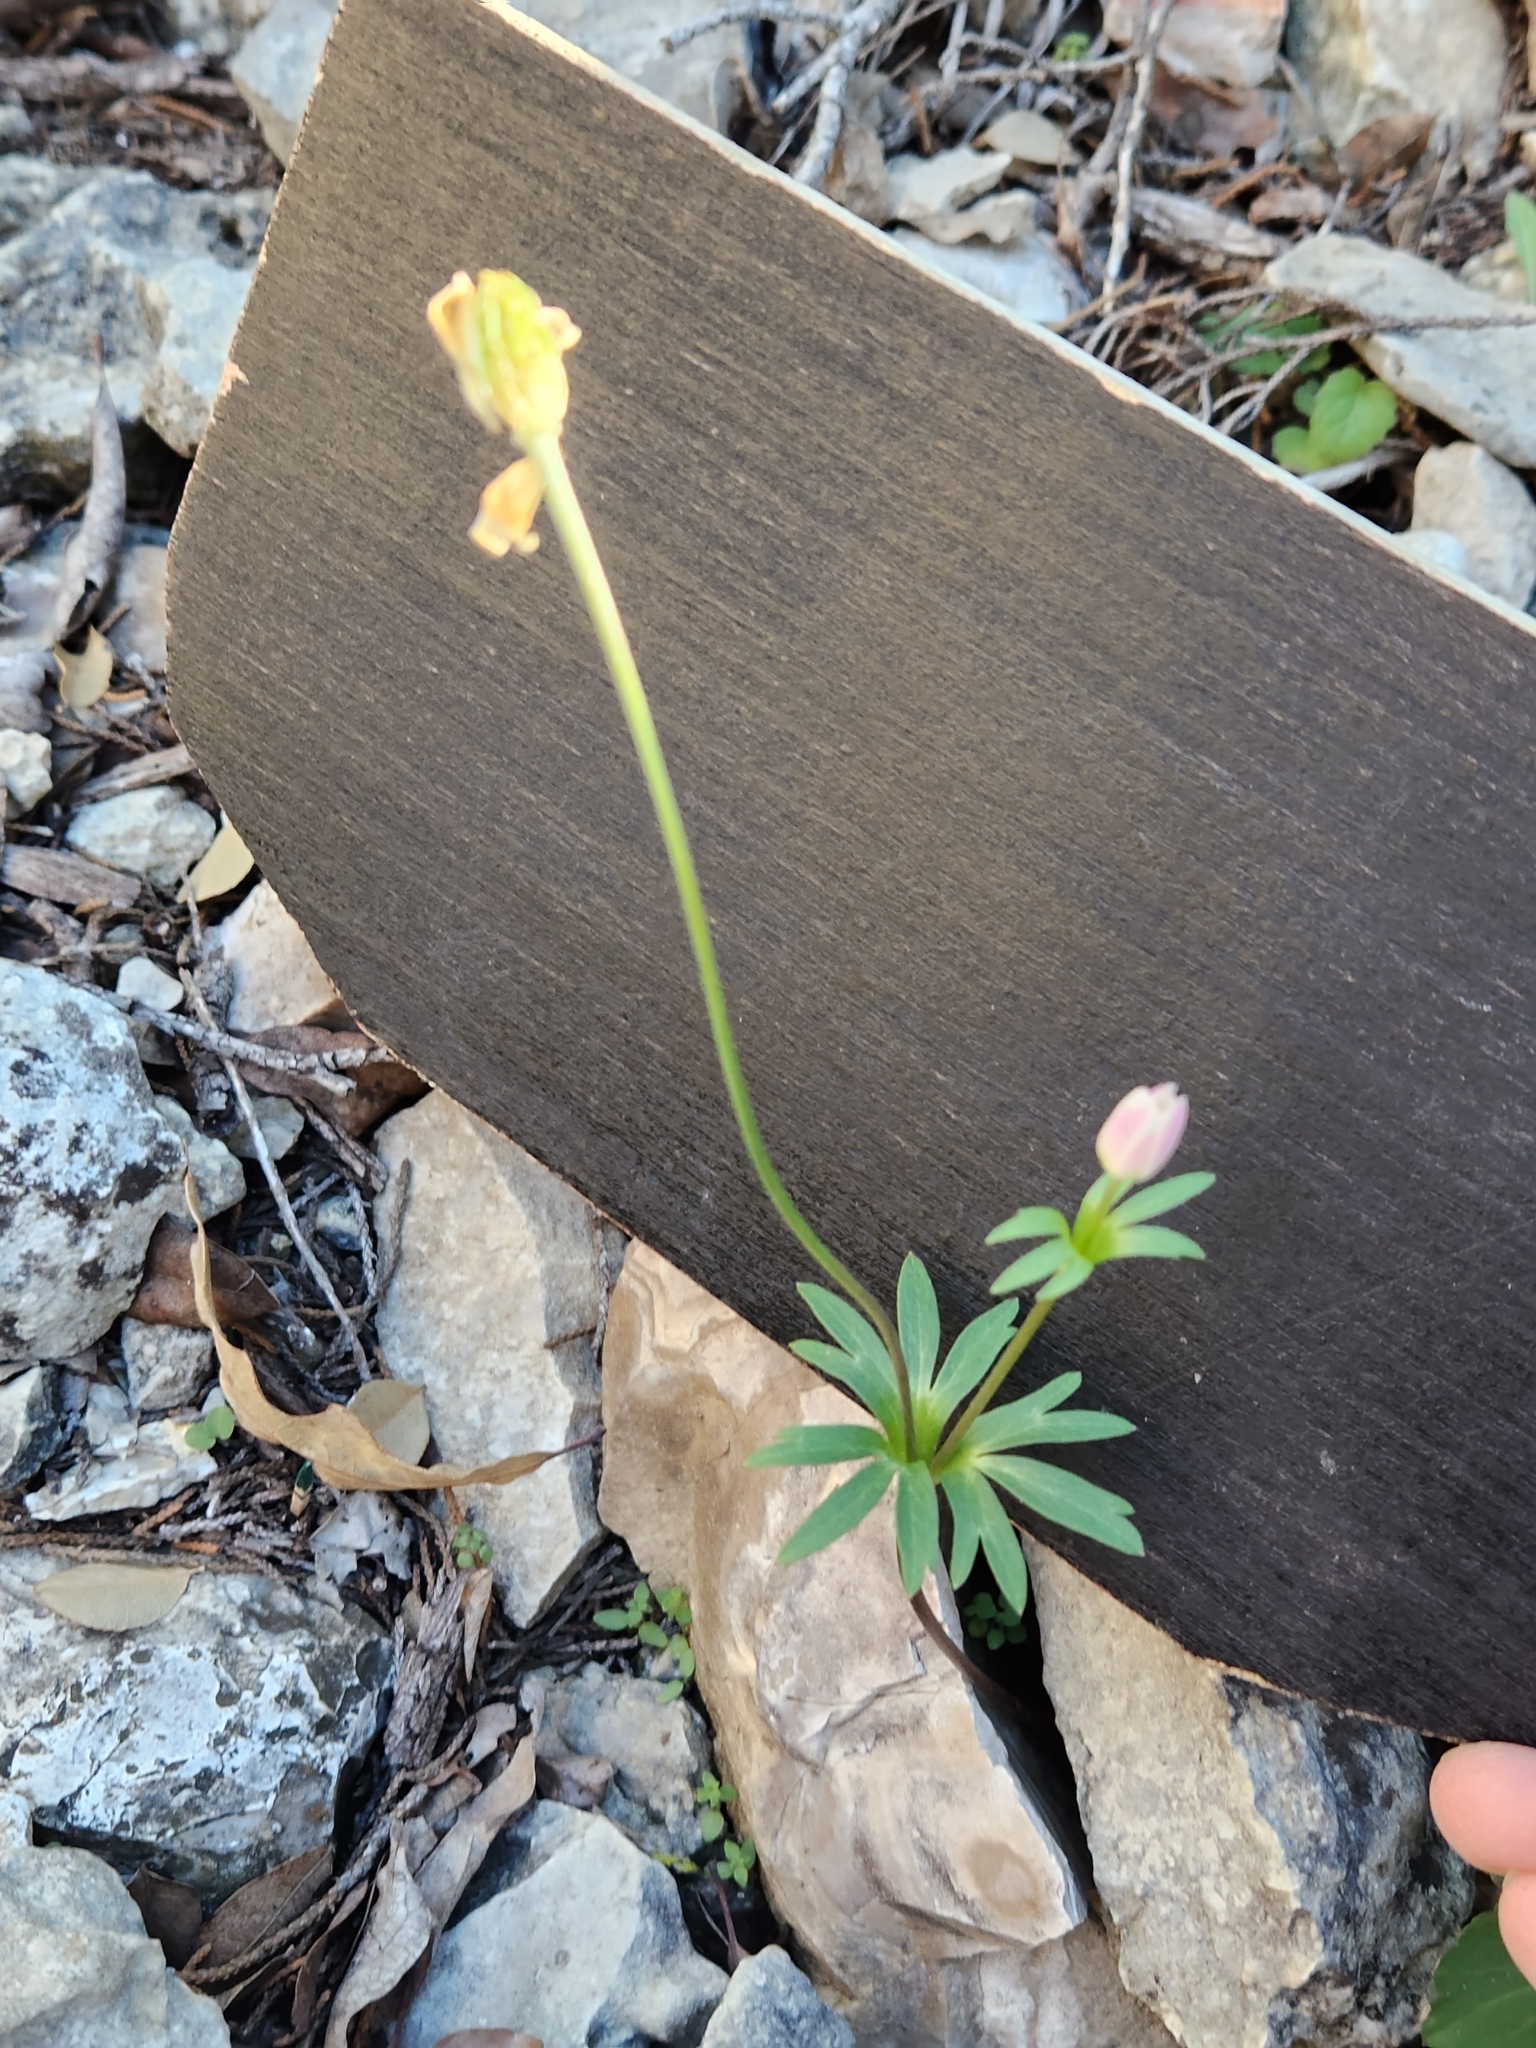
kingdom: Plantae
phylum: Tracheophyta
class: Magnoliopsida
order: Ranunculales
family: Ranunculaceae
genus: Anemone
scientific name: Anemone edwardsiana
